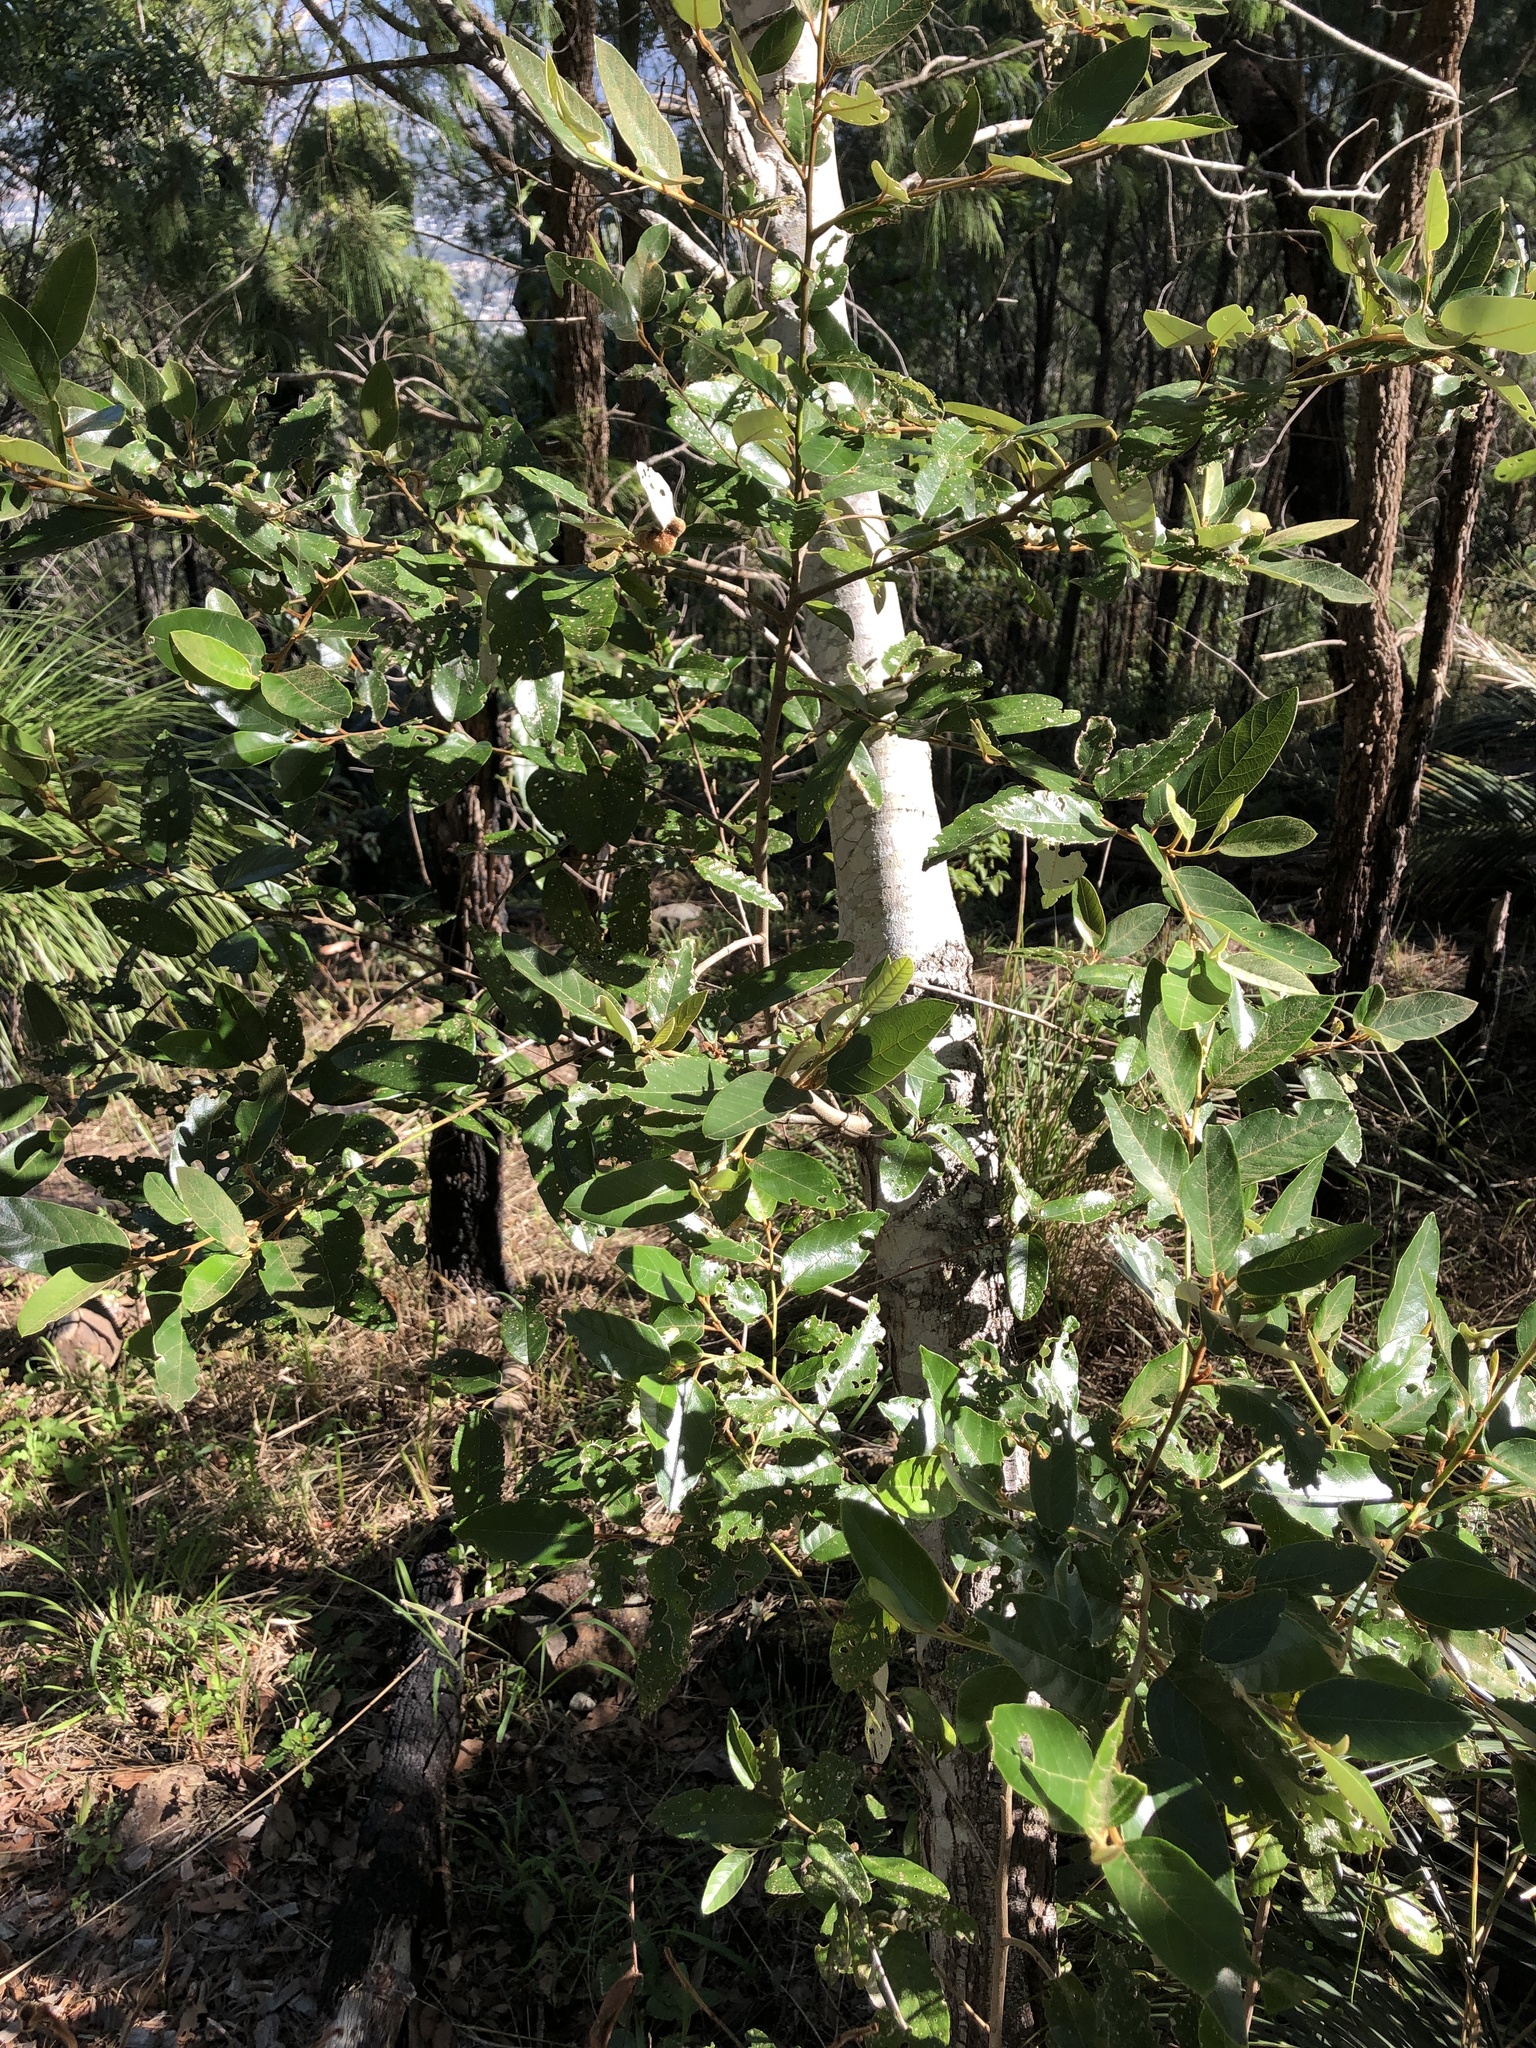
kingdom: Plantae
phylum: Tracheophyta
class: Magnoliopsida
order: Rosales
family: Rhamnaceae
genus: Alphitonia
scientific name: Alphitonia excelsa
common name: Red ash
